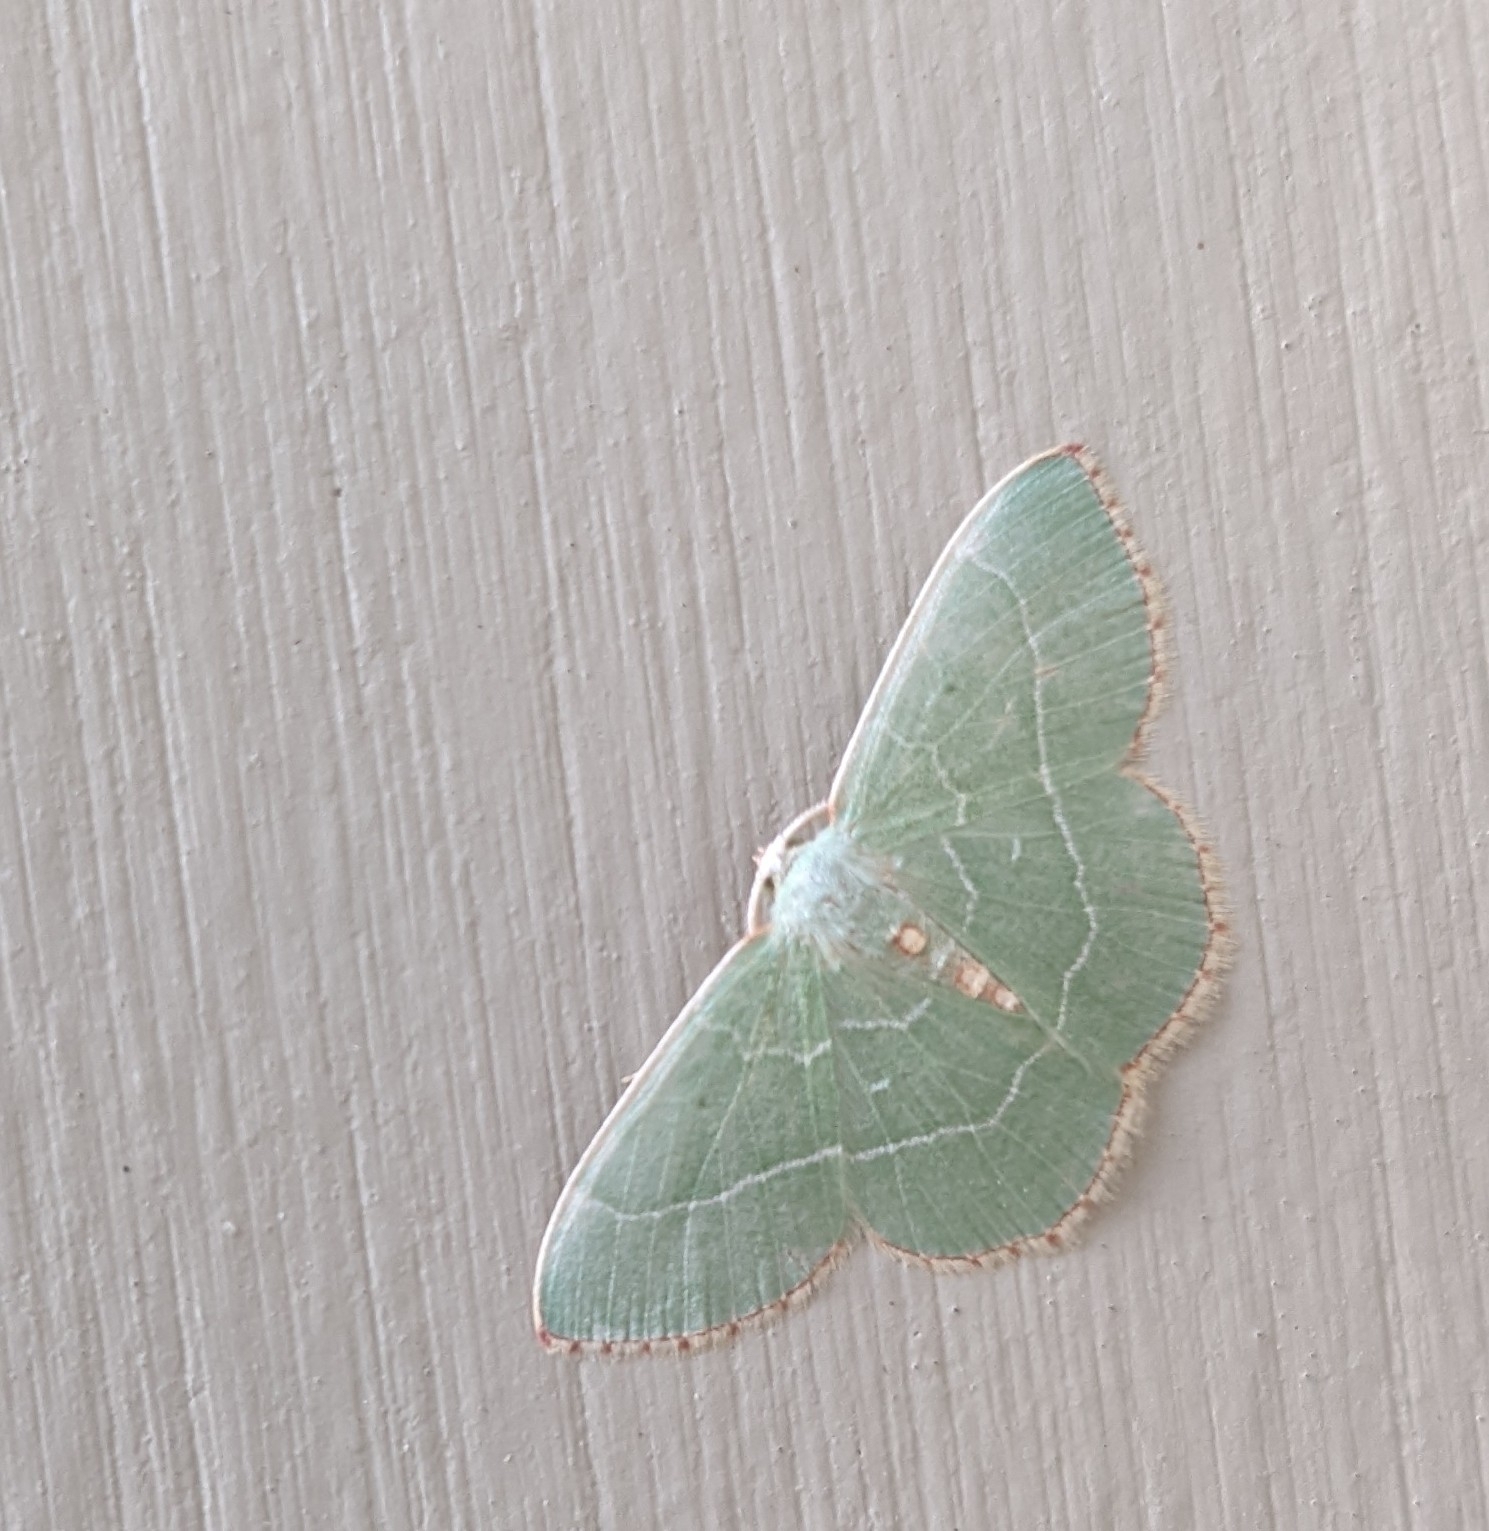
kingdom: Animalia
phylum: Arthropoda
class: Insecta
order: Lepidoptera
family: Geometridae
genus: Nemoria
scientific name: Nemoria bistriaria
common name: Red-fringed emerald
